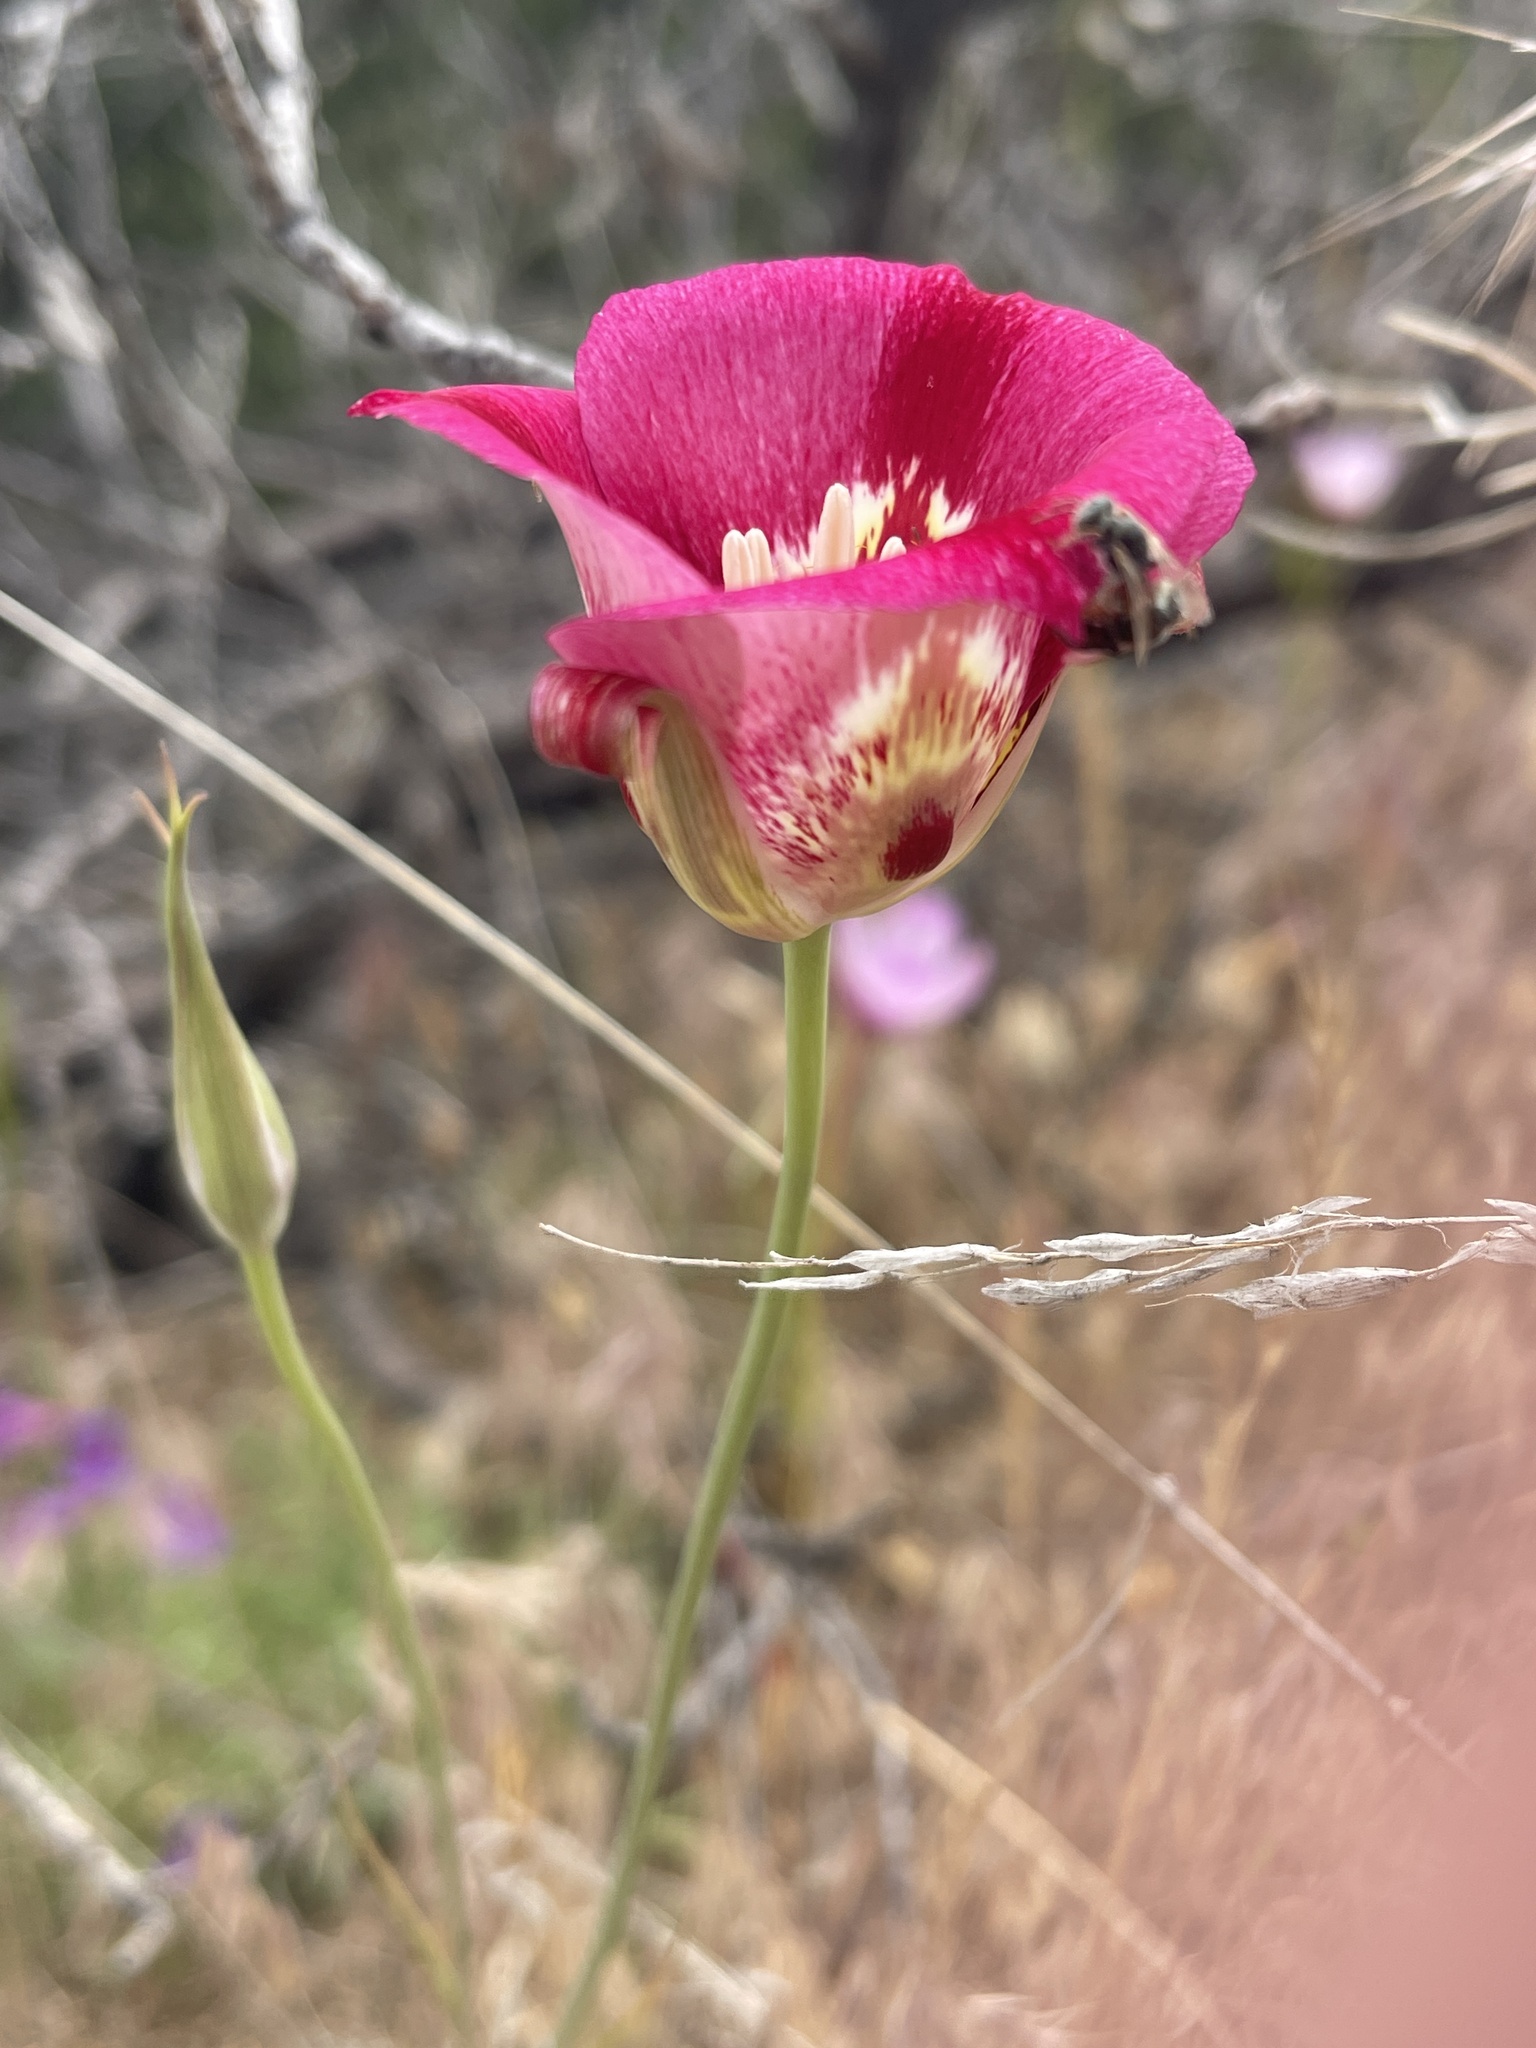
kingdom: Plantae
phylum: Tracheophyta
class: Liliopsida
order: Liliales
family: Liliaceae
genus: Calochortus
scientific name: Calochortus venustus
